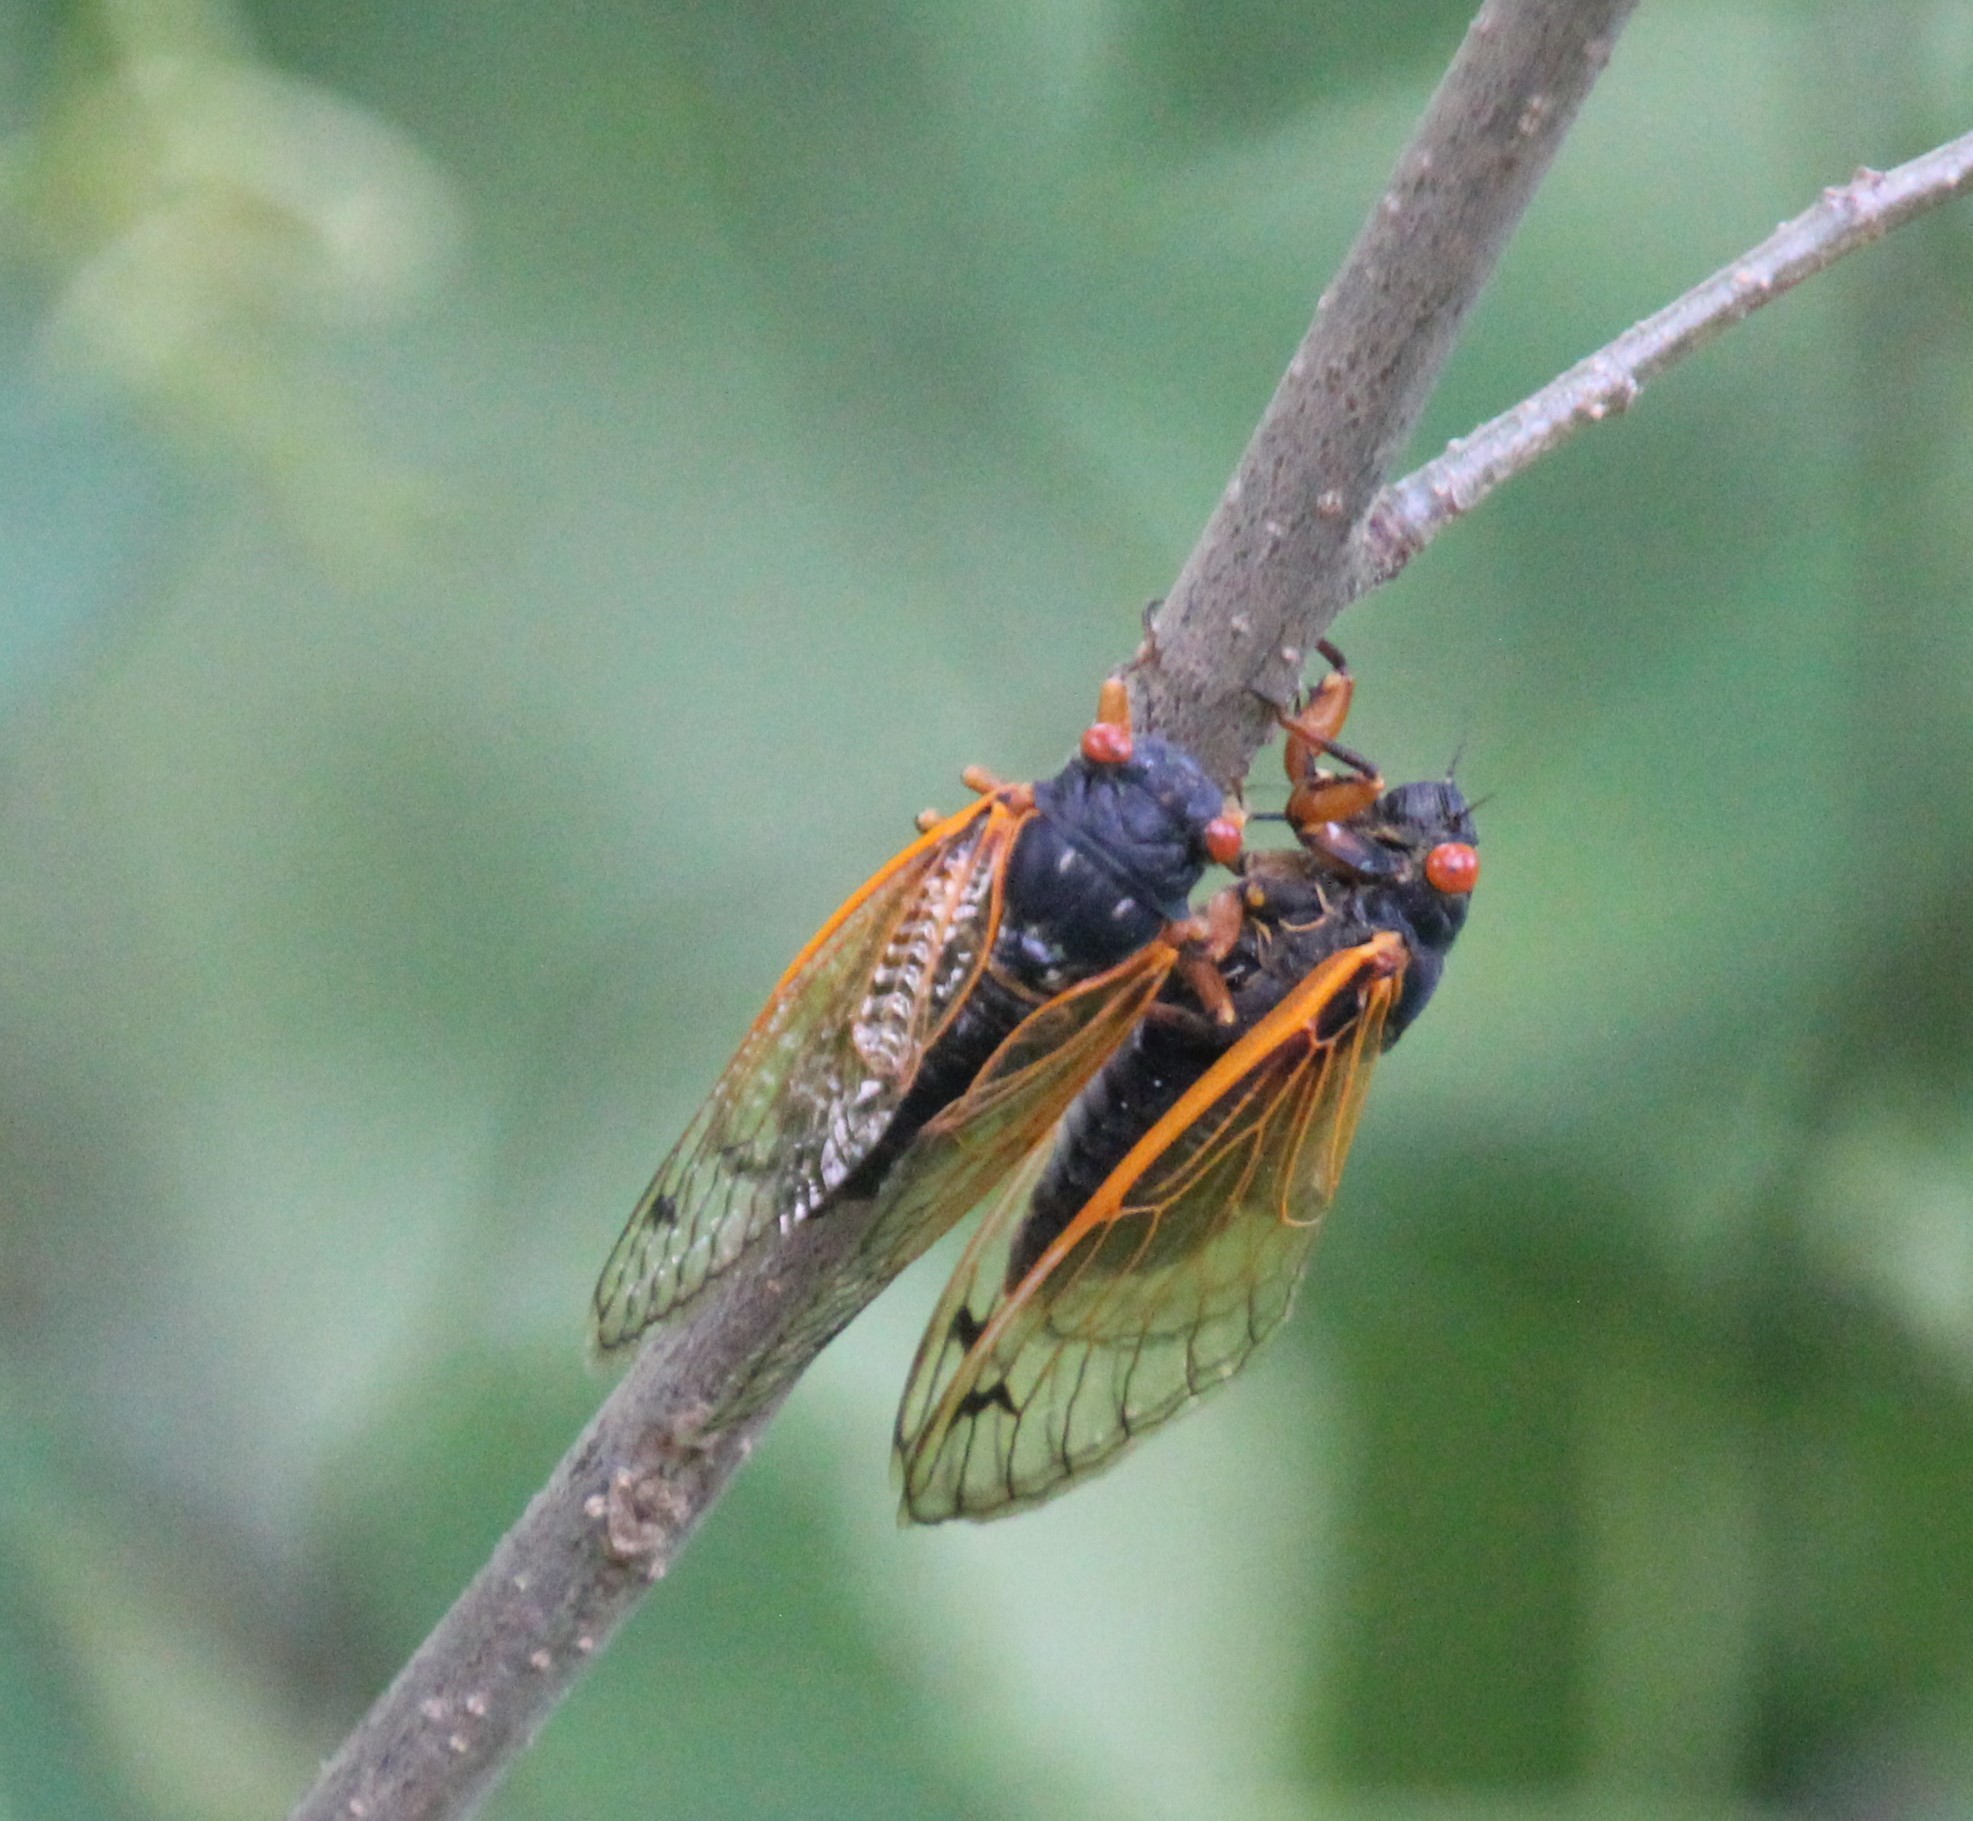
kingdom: Animalia
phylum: Arthropoda
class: Insecta
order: Hemiptera
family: Cicadidae
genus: Magicicada
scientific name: Magicicada cassini
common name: Cassin's 17-year cicada
